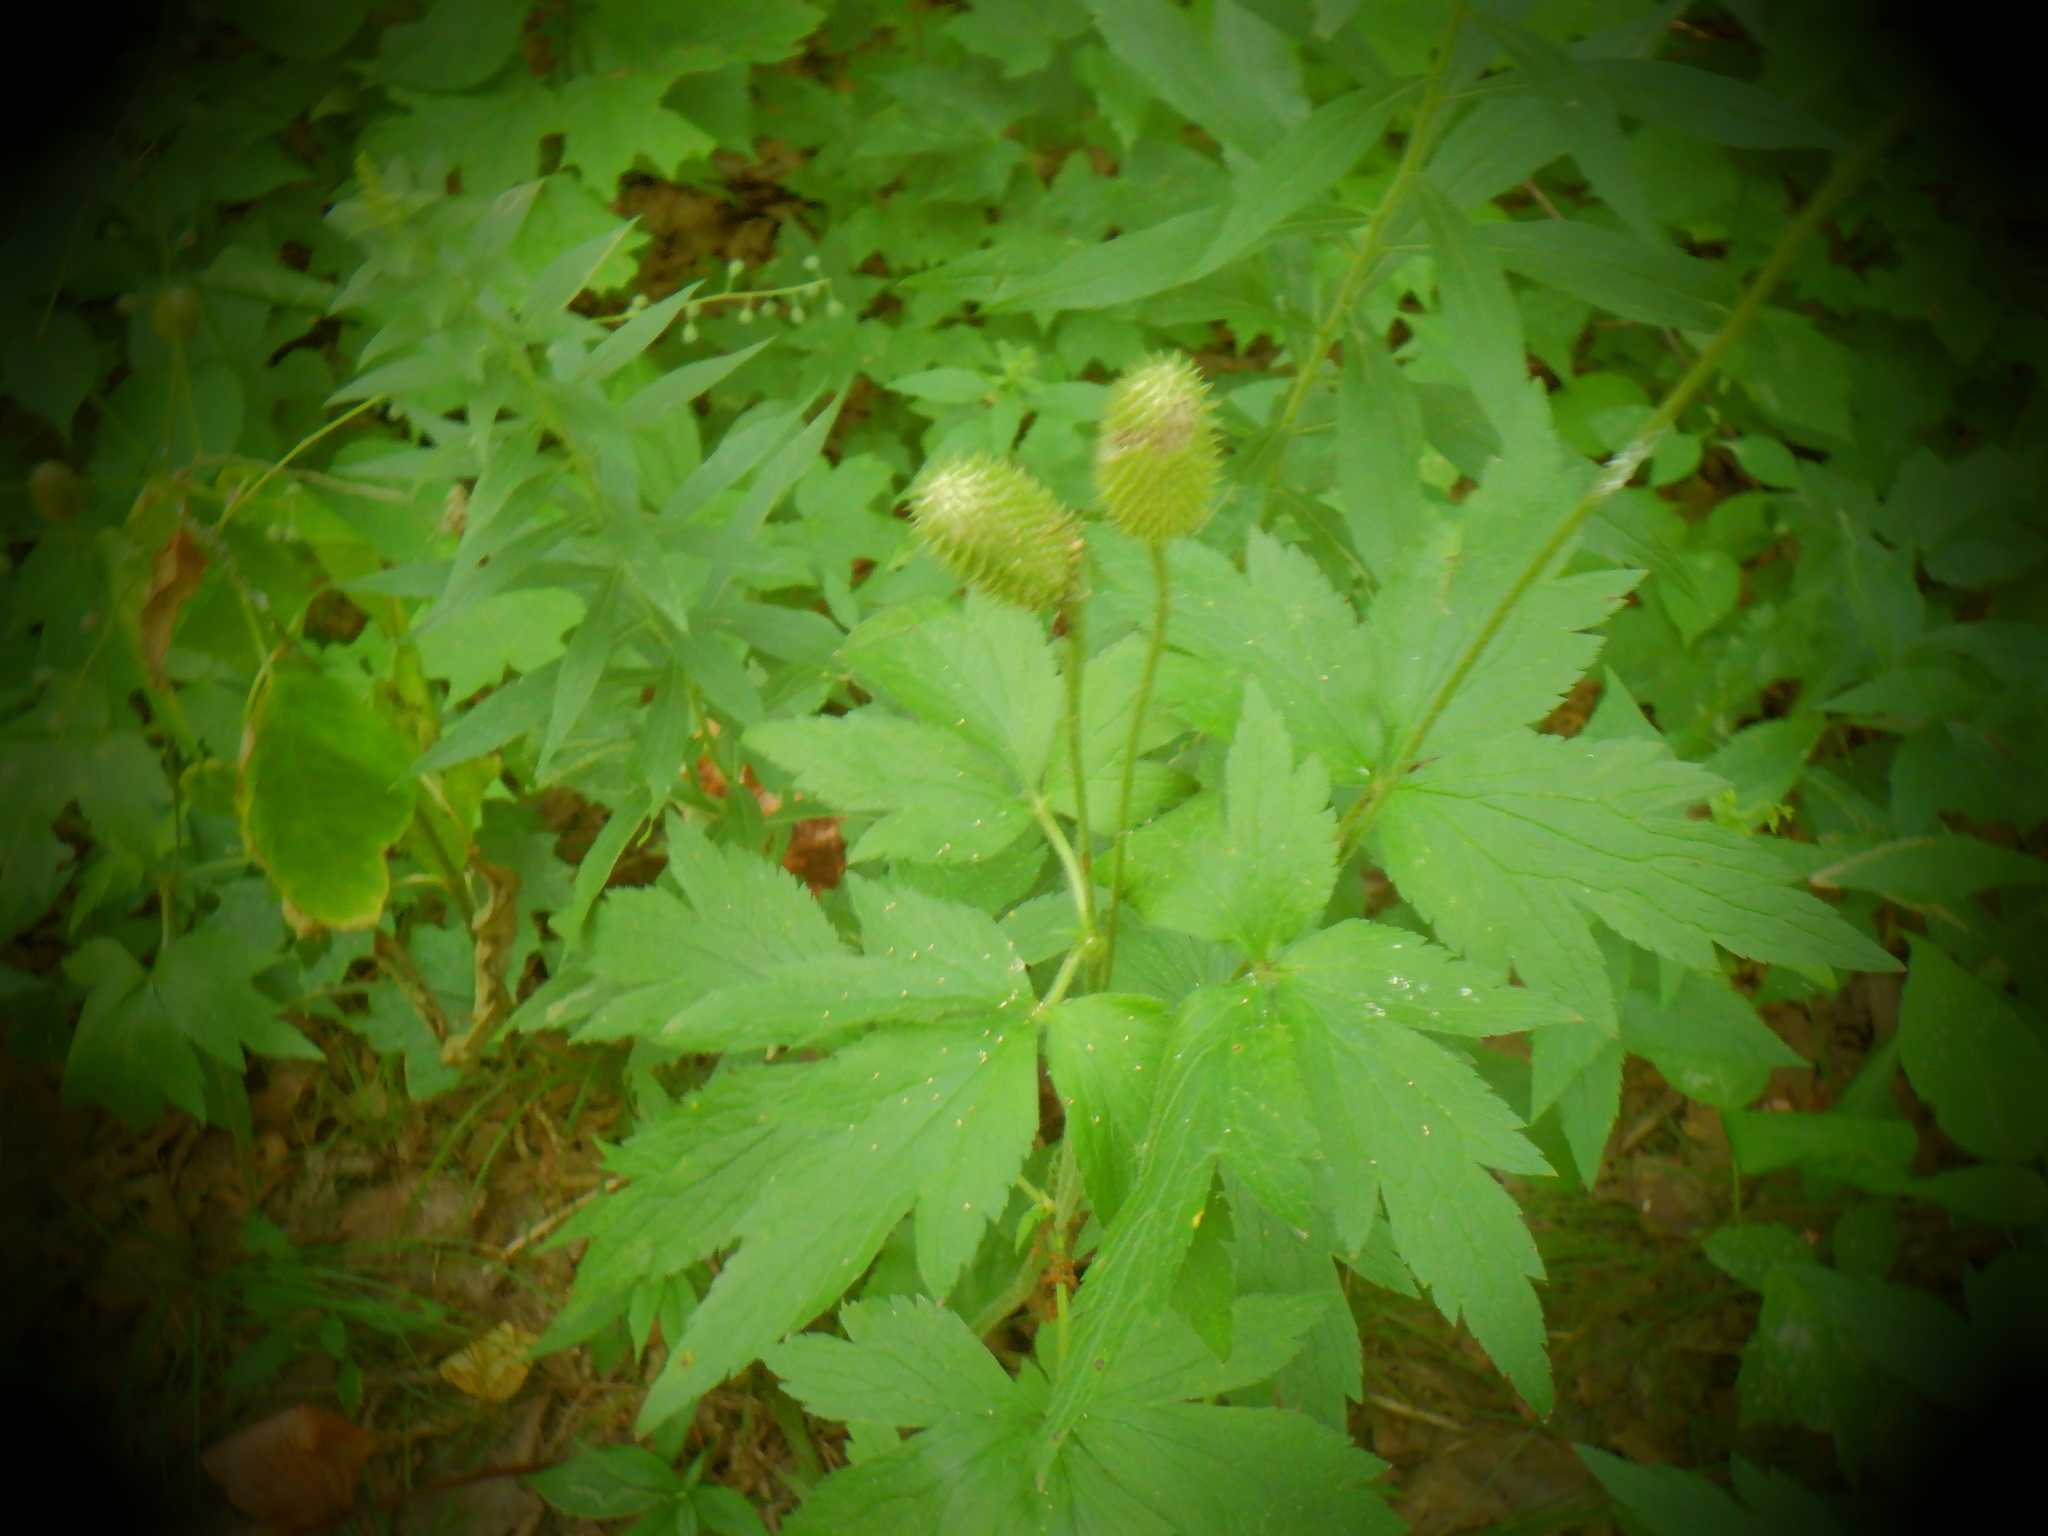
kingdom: Plantae
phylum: Tracheophyta
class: Magnoliopsida
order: Ranunculales
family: Ranunculaceae
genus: Anemone
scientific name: Anemone virginiana
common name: Tall anemone
